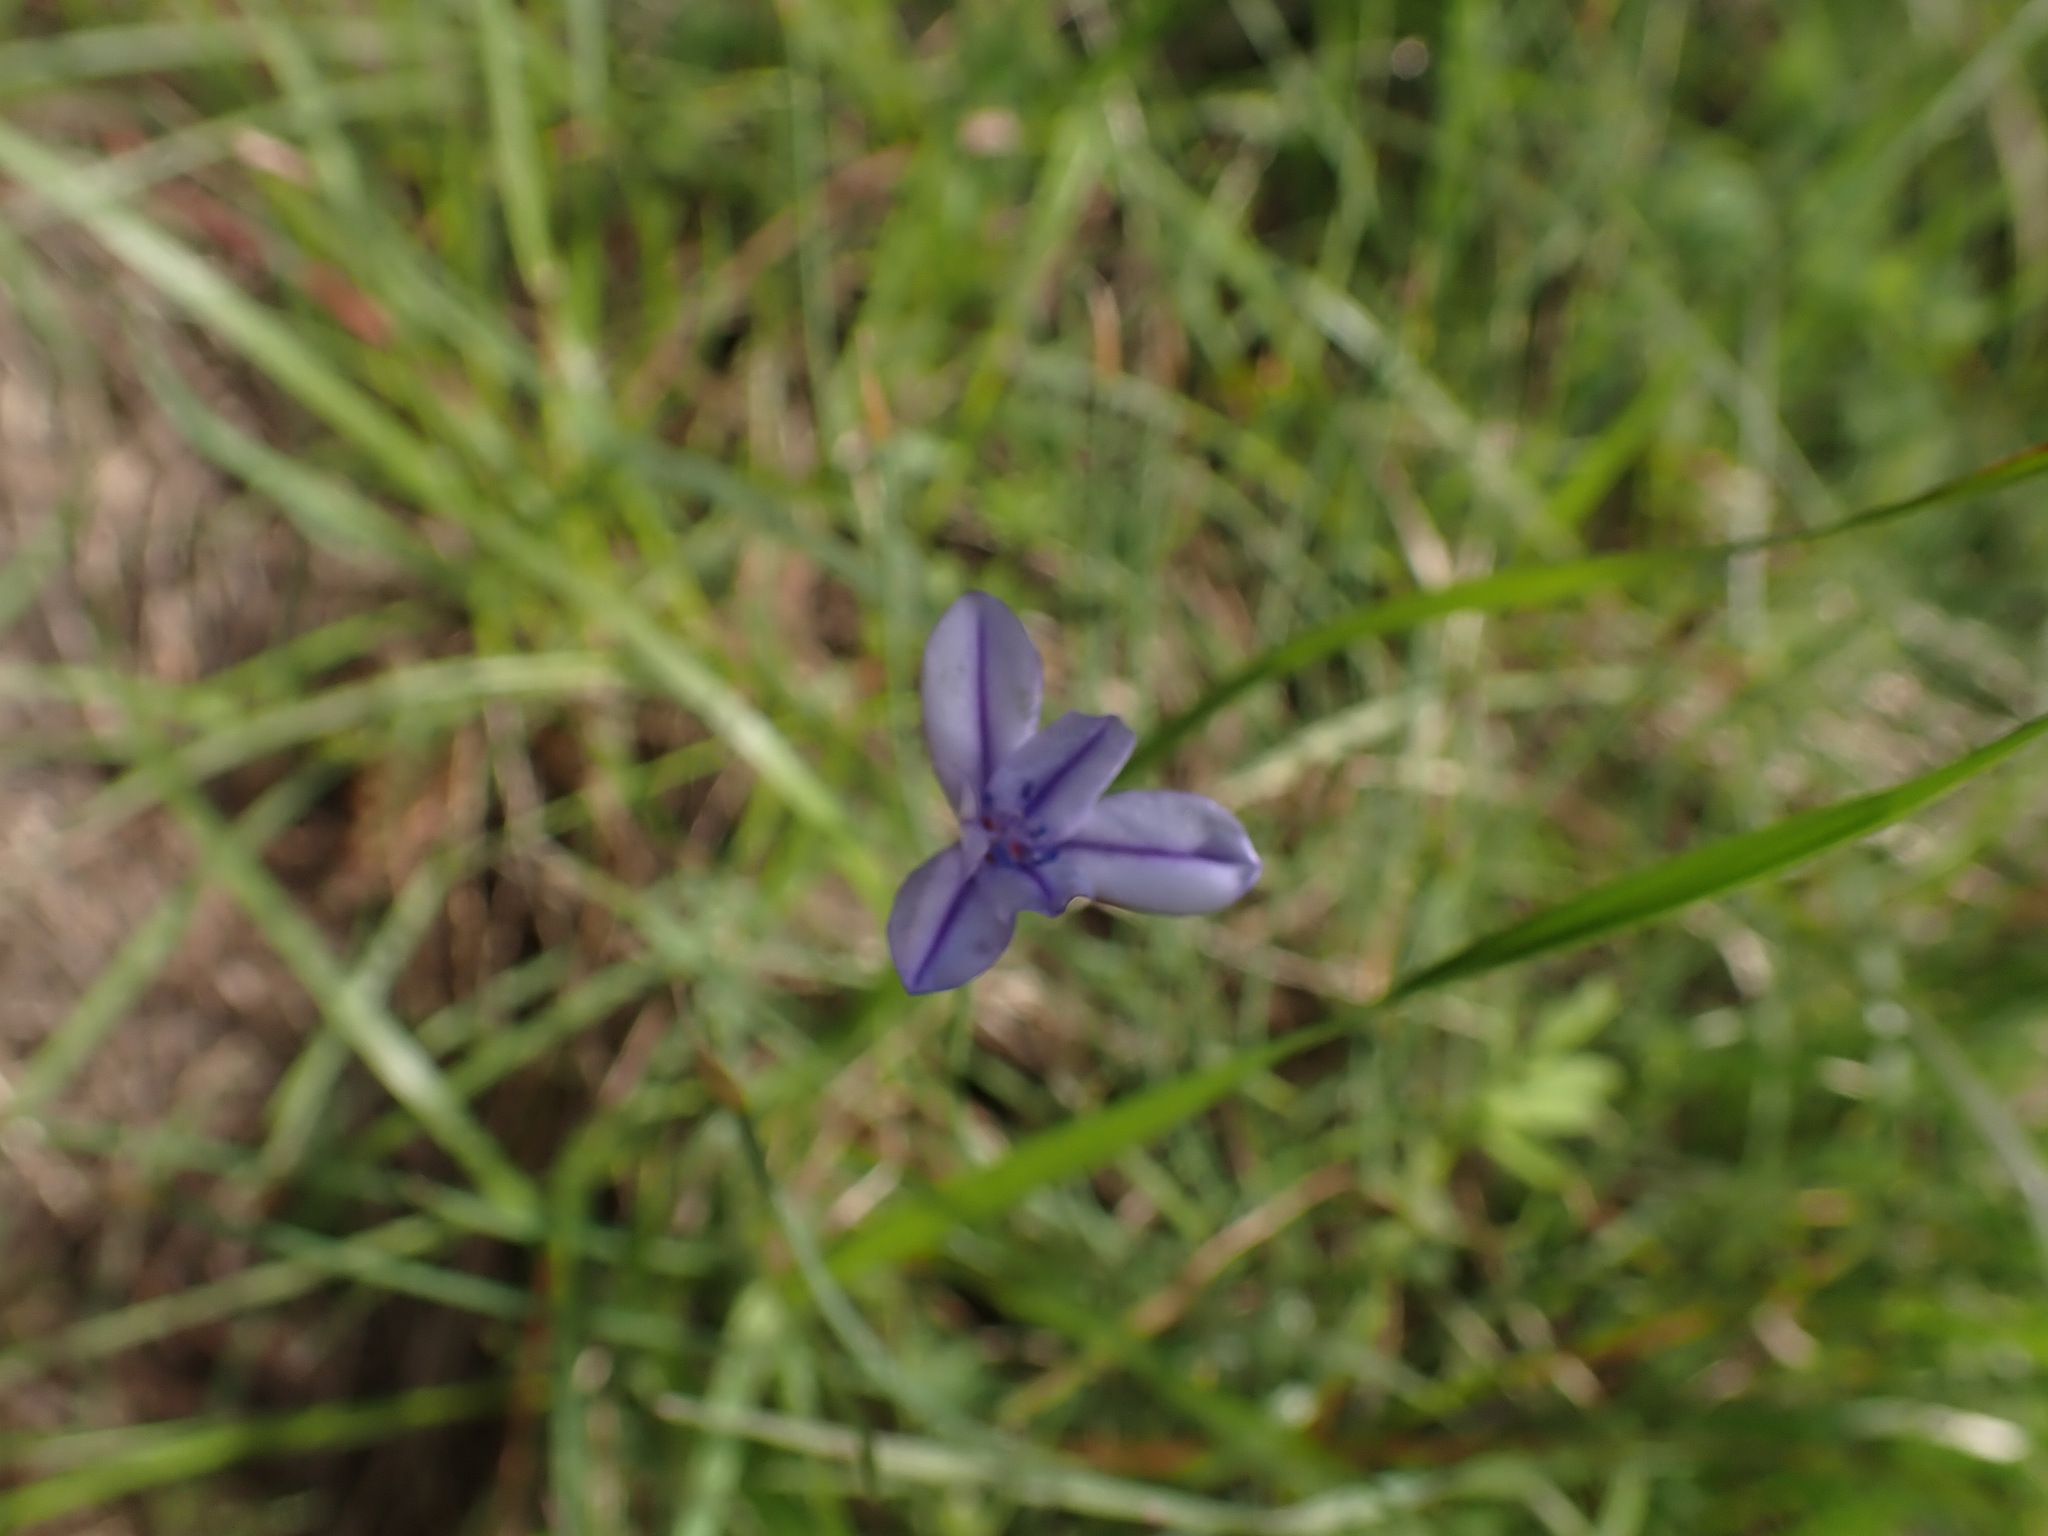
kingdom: Plantae
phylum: Tracheophyta
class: Liliopsida
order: Asparagales
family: Asparagaceae
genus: Aphyllanthes
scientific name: Aphyllanthes monspeliensis
